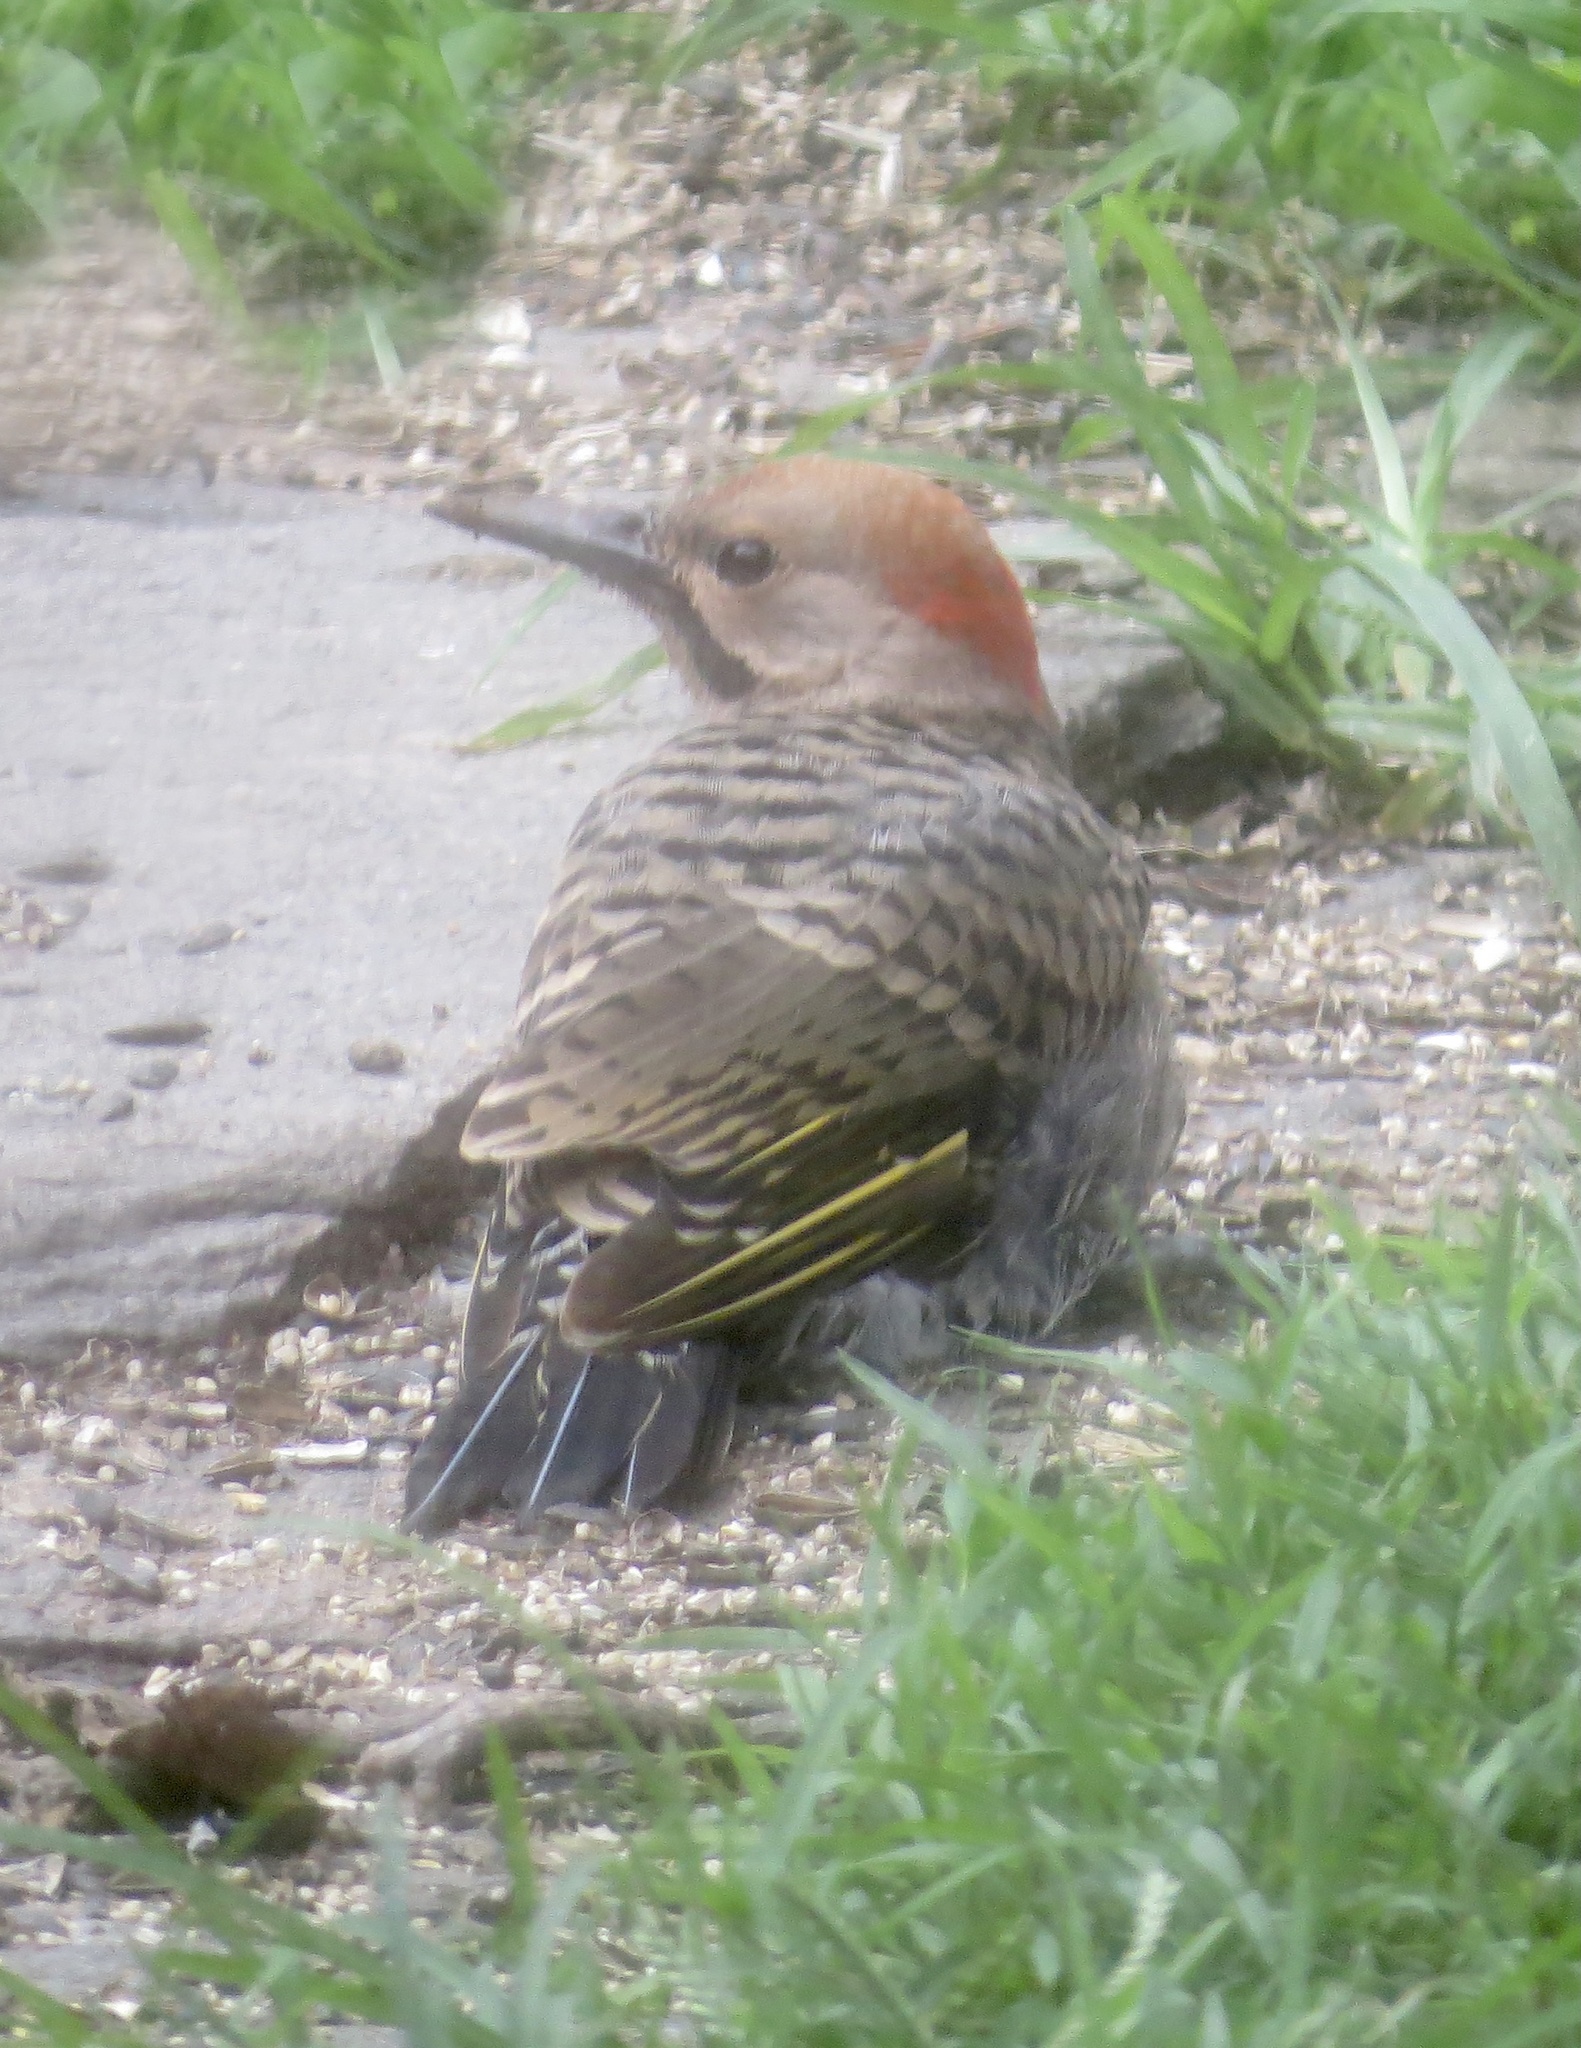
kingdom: Animalia
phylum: Chordata
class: Aves
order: Piciformes
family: Picidae
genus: Colaptes
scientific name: Colaptes auratus
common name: Northern flicker
